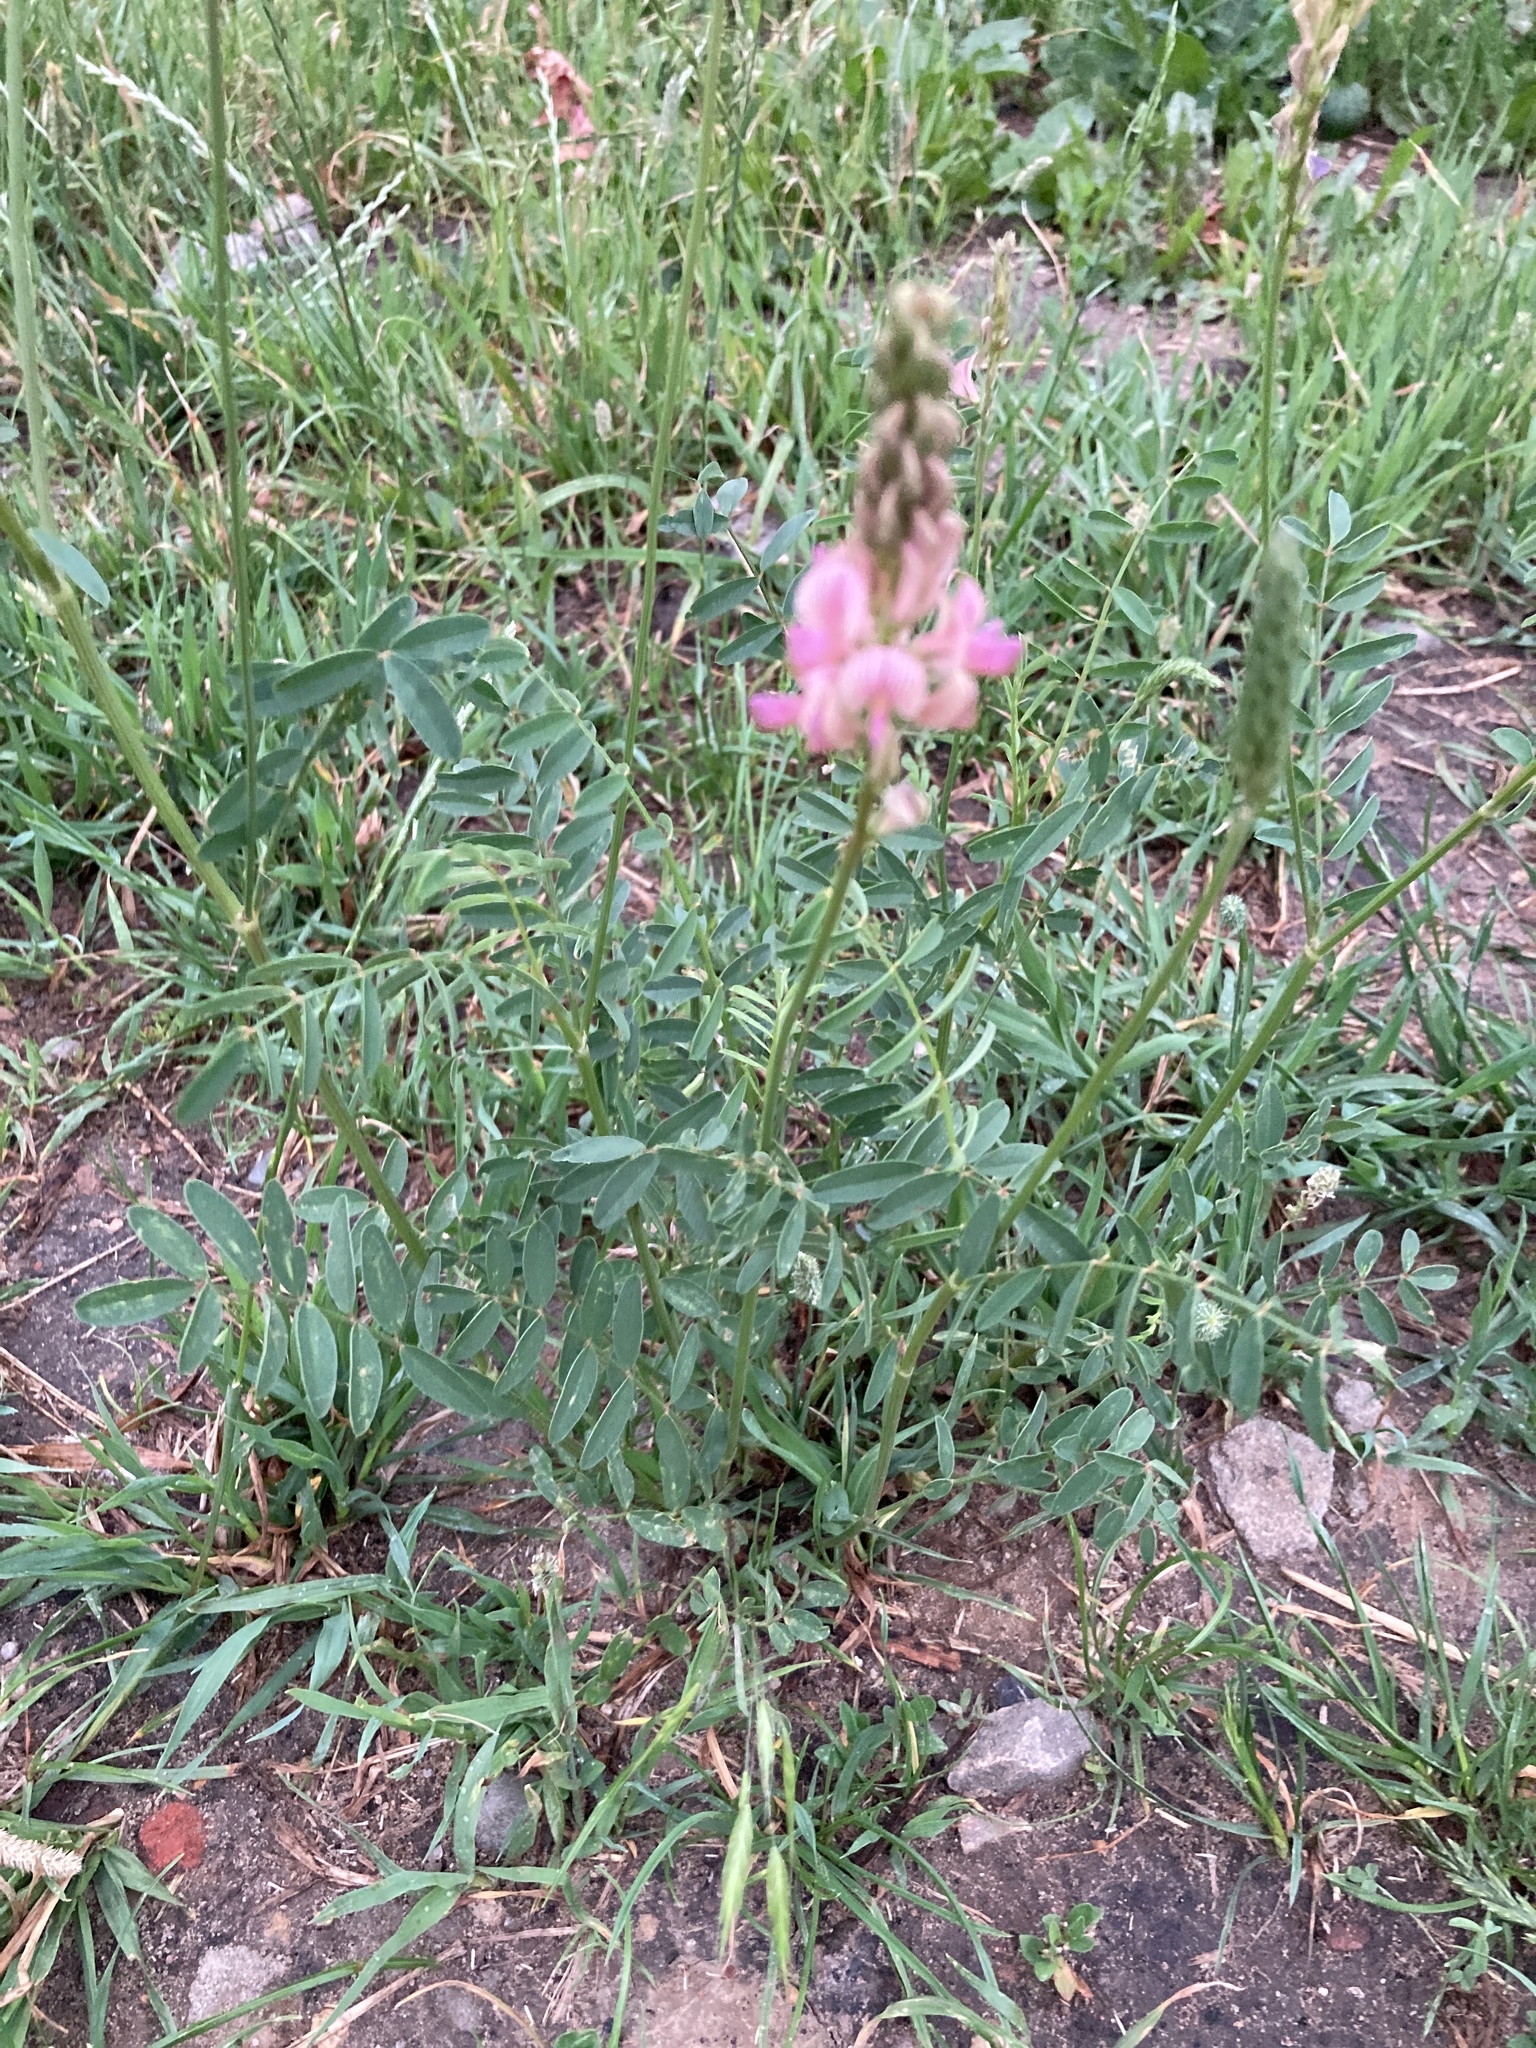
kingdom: Plantae
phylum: Tracheophyta
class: Magnoliopsida
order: Fabales
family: Fabaceae
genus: Onobrychis
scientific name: Onobrychis viciifolia
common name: Sainfoin
